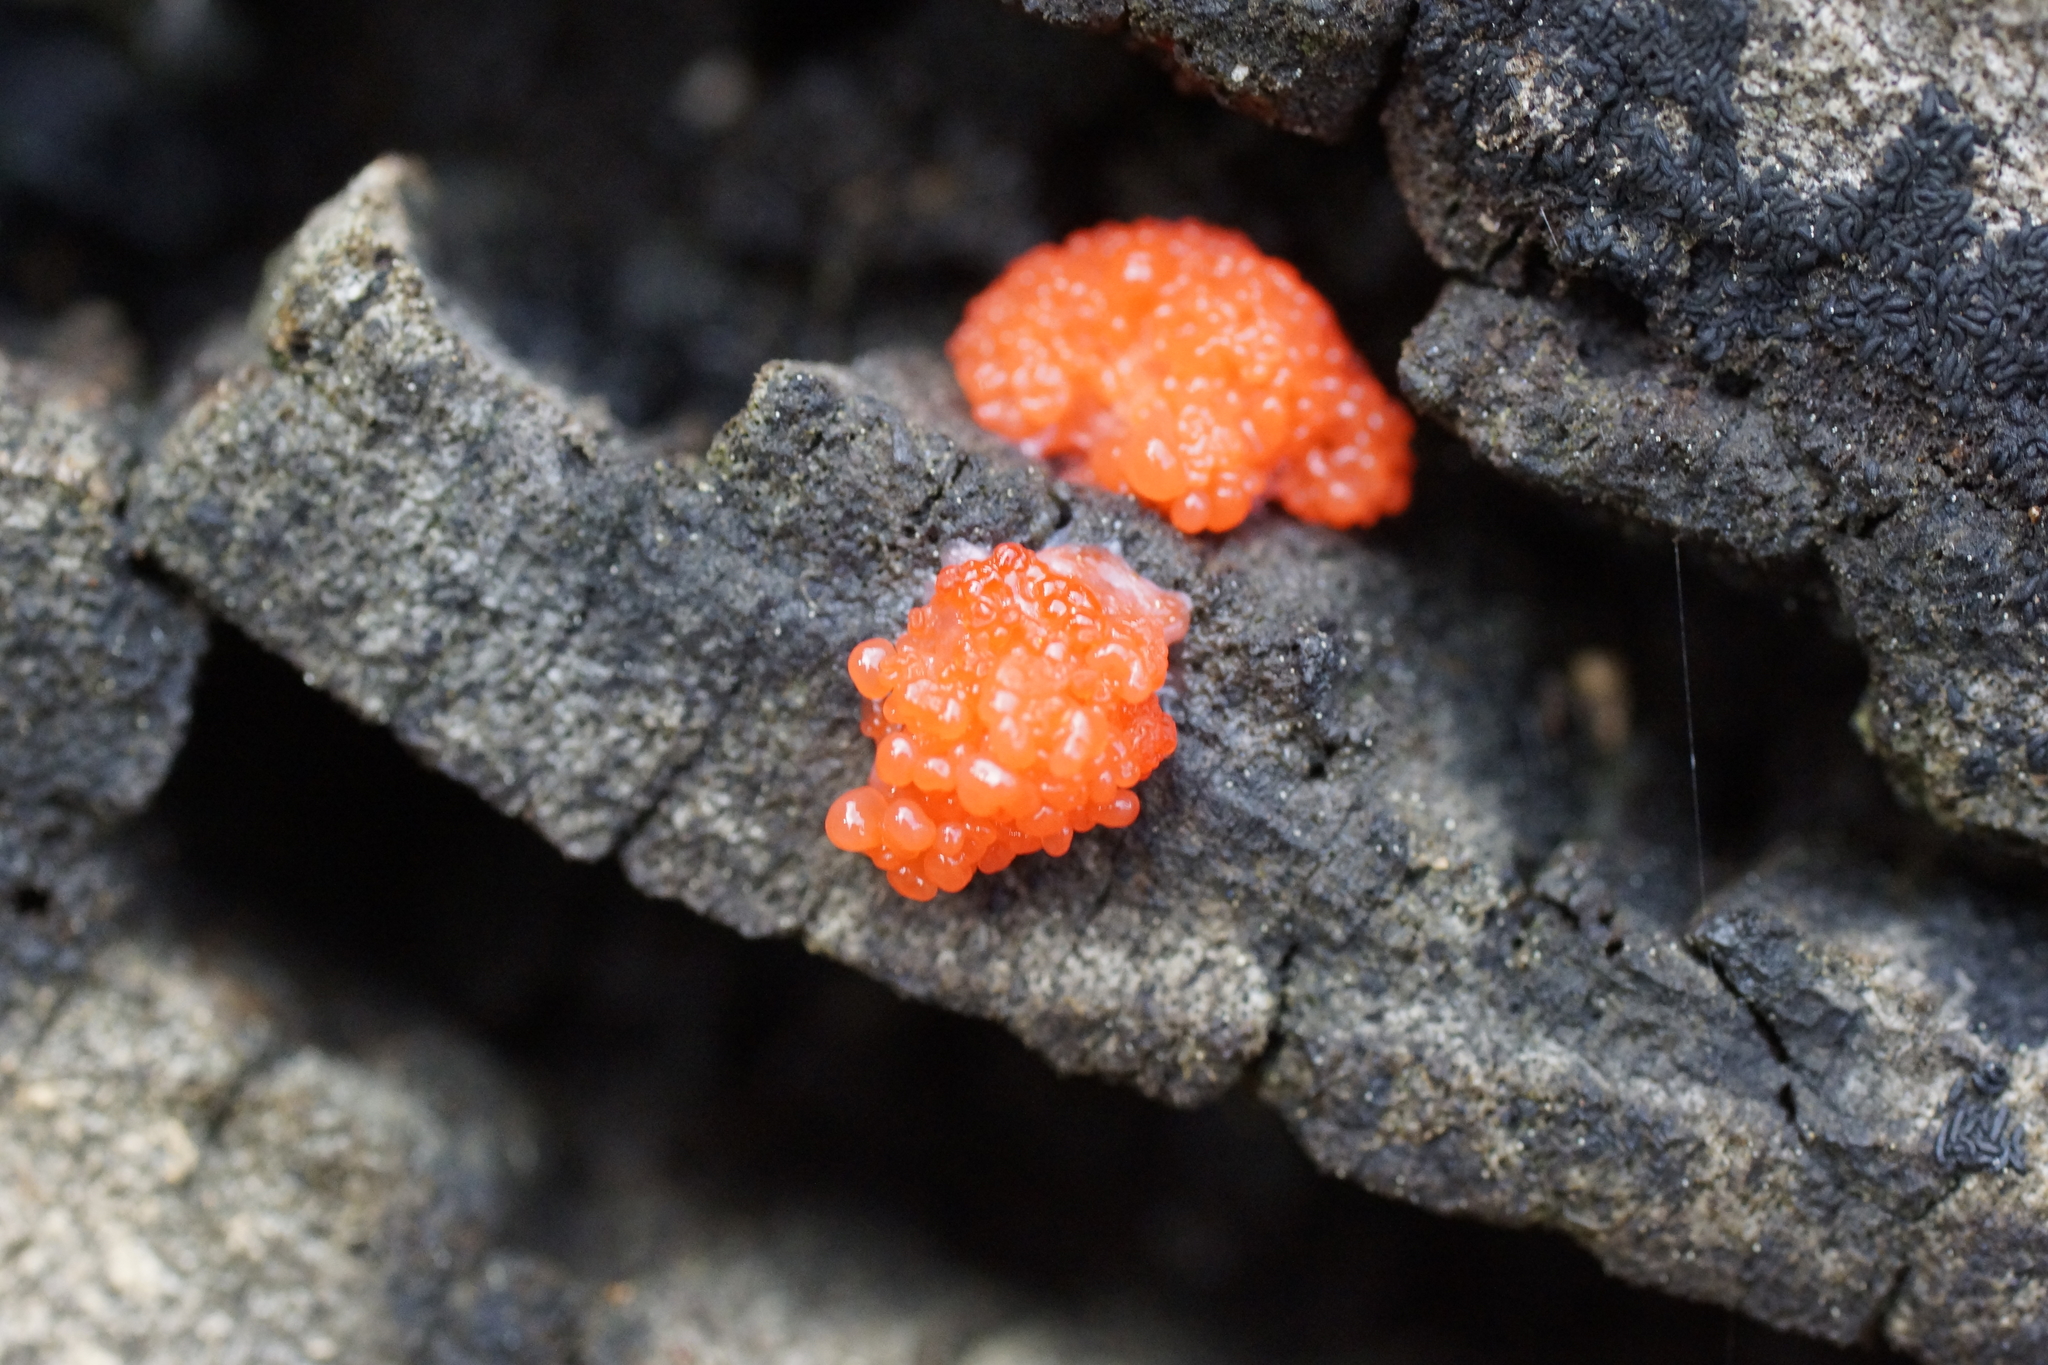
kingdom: Protozoa
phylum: Mycetozoa
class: Myxomycetes
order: Cribrariales
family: Tubiferaceae
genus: Tubifera
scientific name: Tubifera ferruginosa
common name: Red raspberry slime mold
